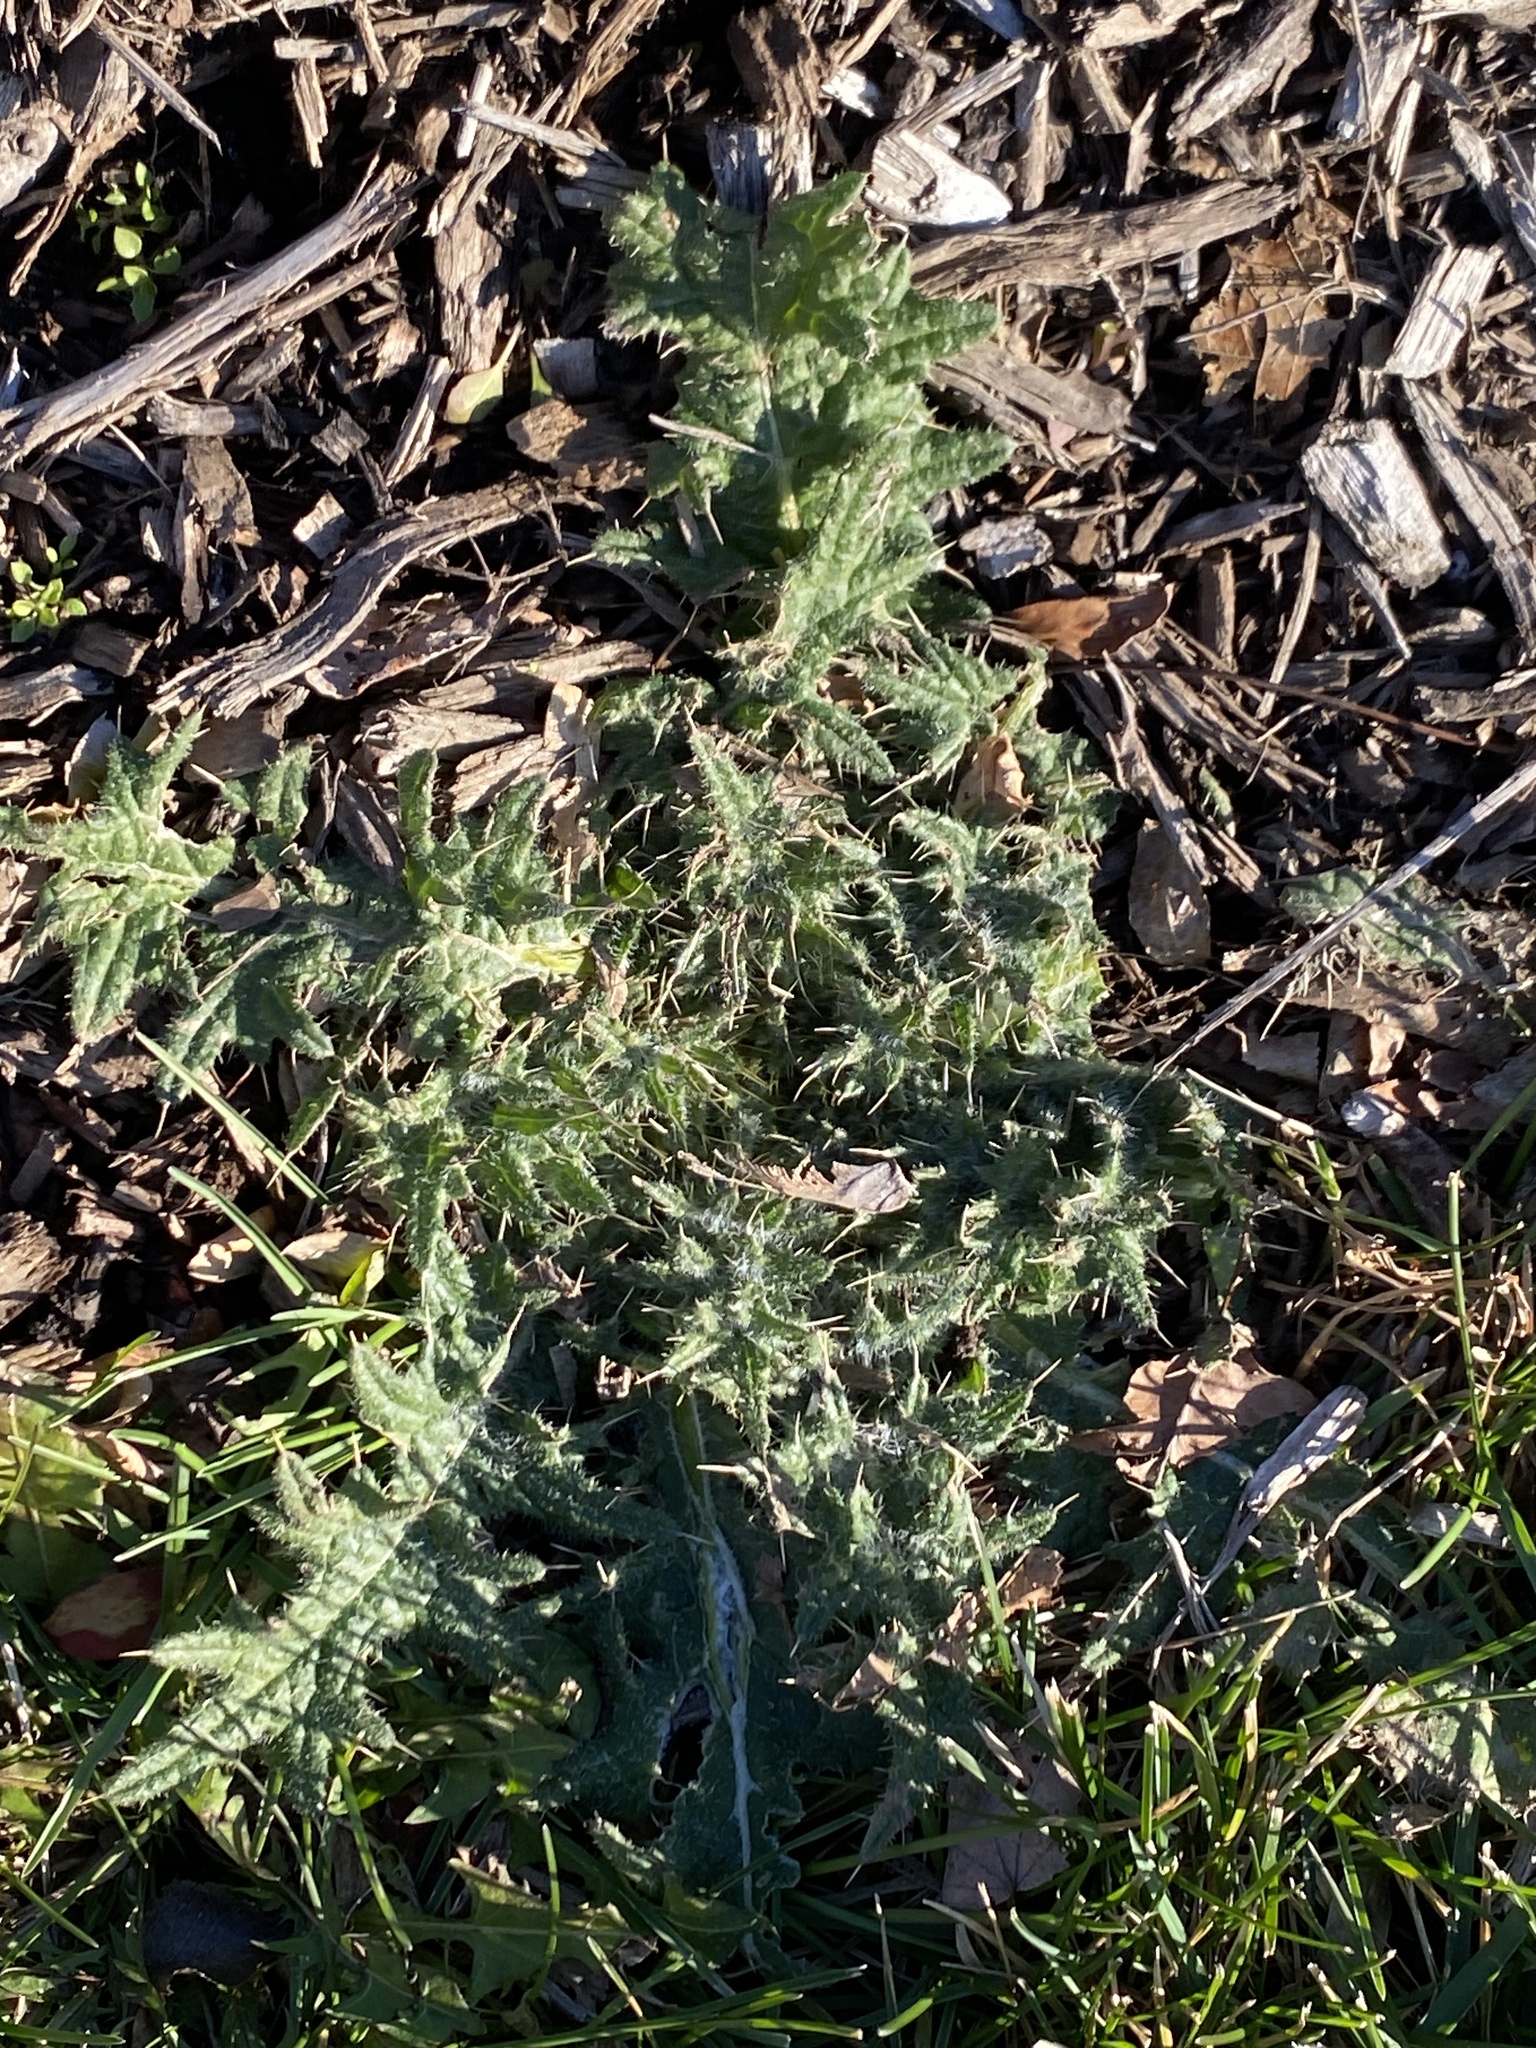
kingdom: Plantae
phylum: Tracheophyta
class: Magnoliopsida
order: Asterales
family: Asteraceae
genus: Cirsium
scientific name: Cirsium vulgare
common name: Bull thistle
